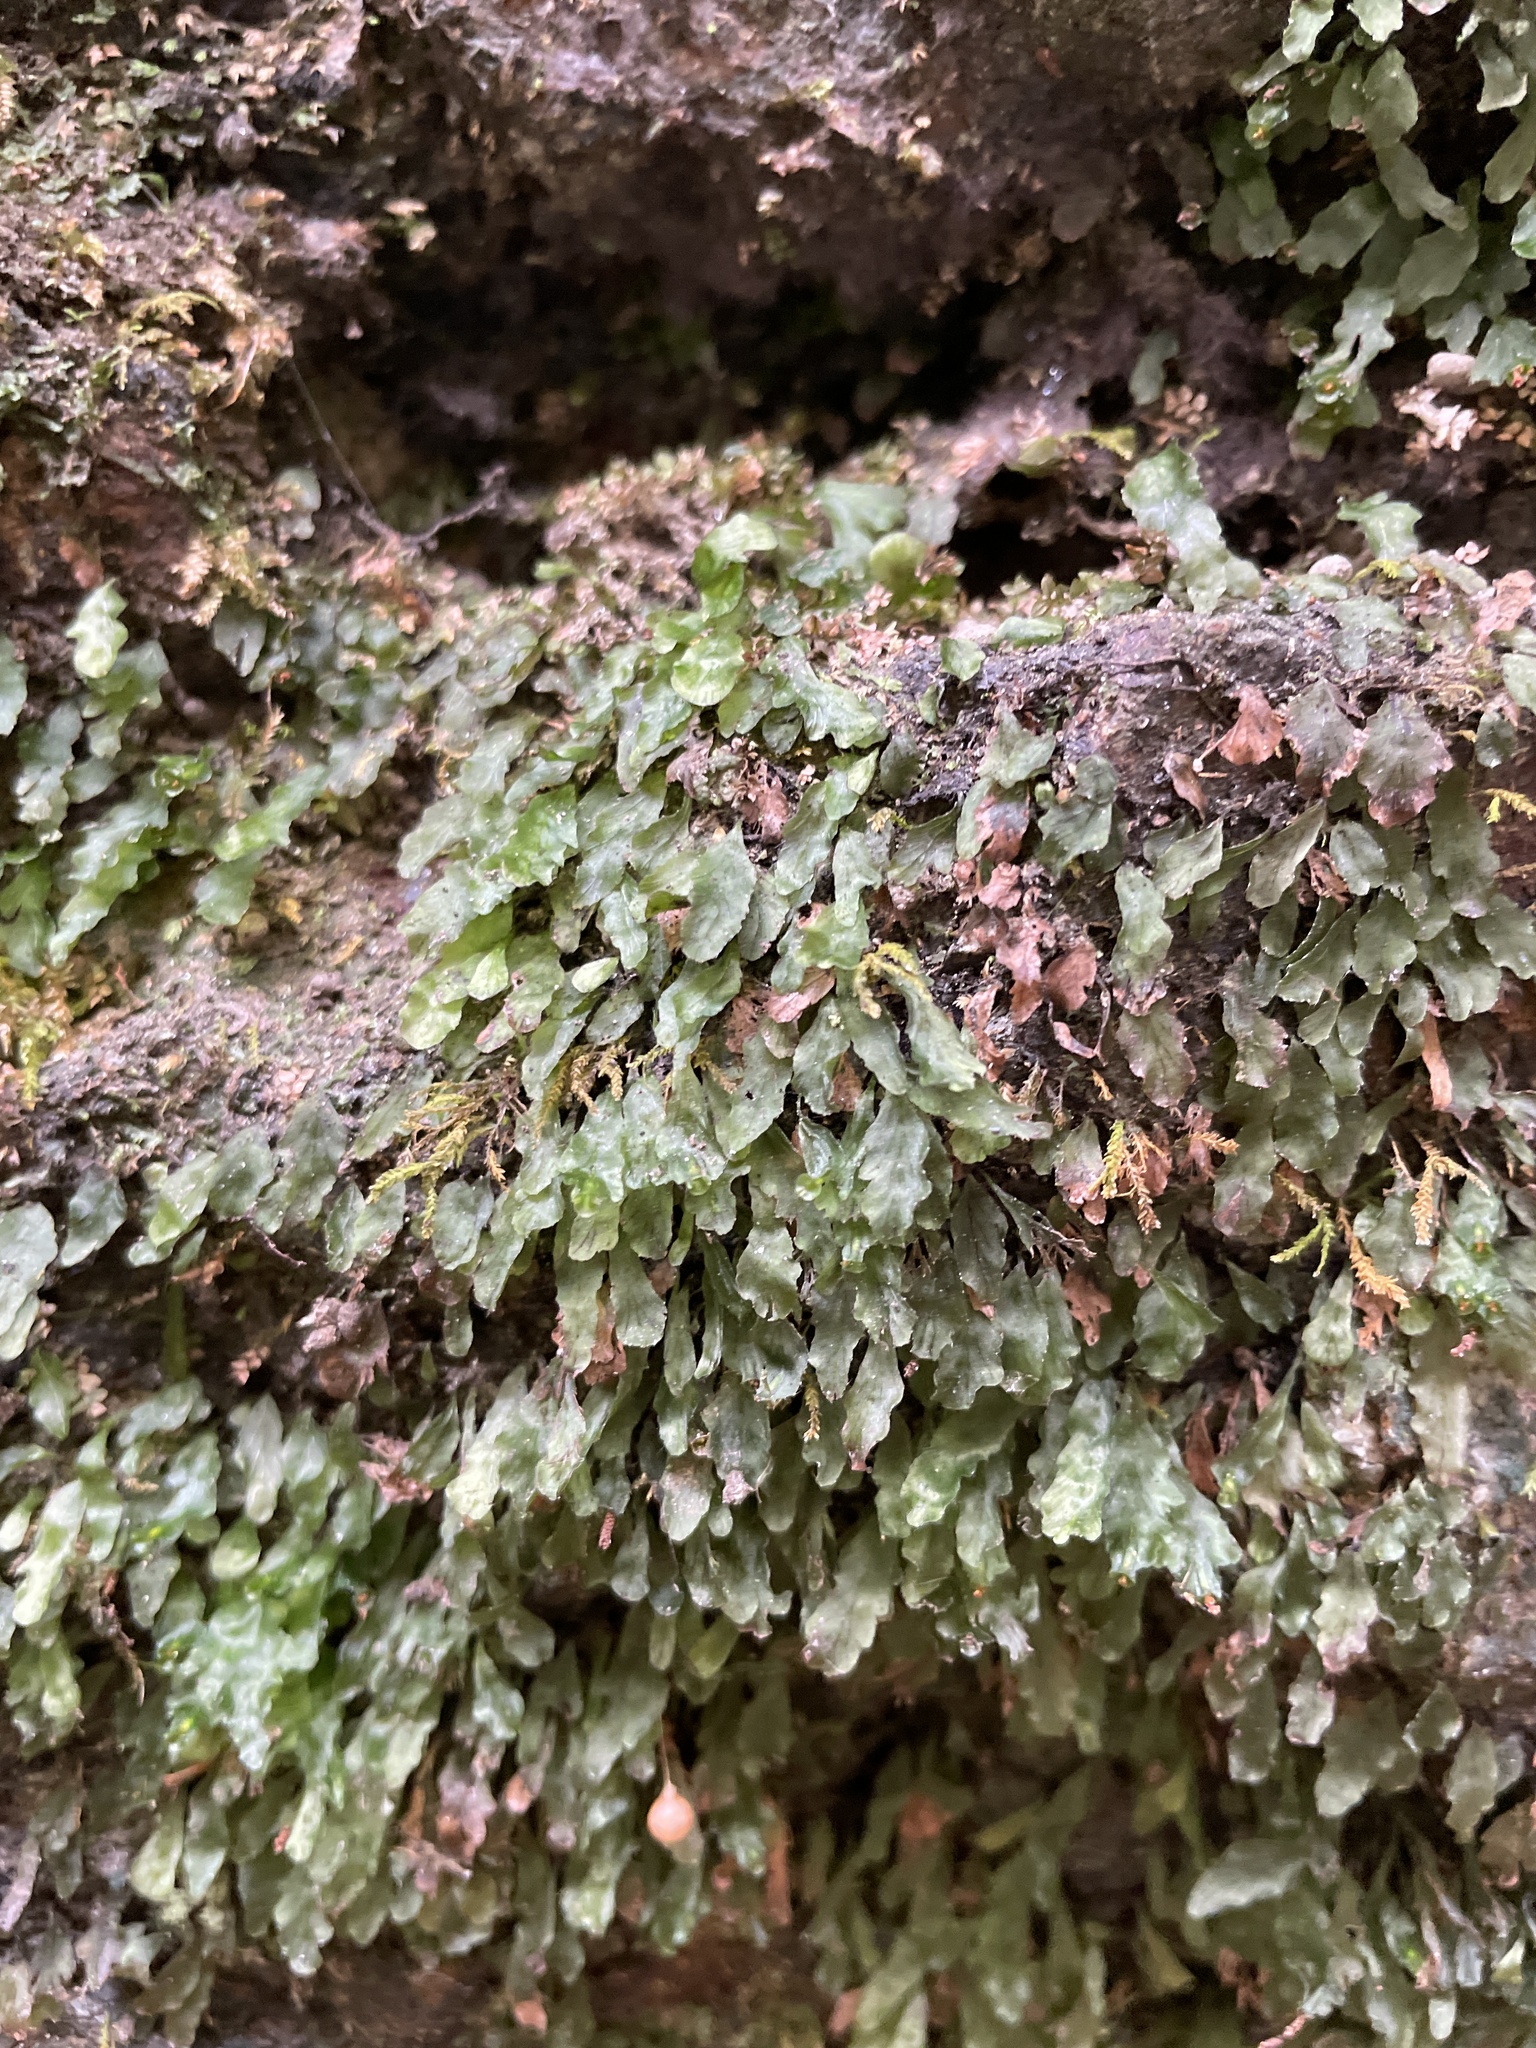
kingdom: Plantae
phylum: Tracheophyta
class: Polypodiopsida
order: Hymenophyllales
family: Hymenophyllaceae
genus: Didymoglossum
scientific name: Didymoglossum petersii
